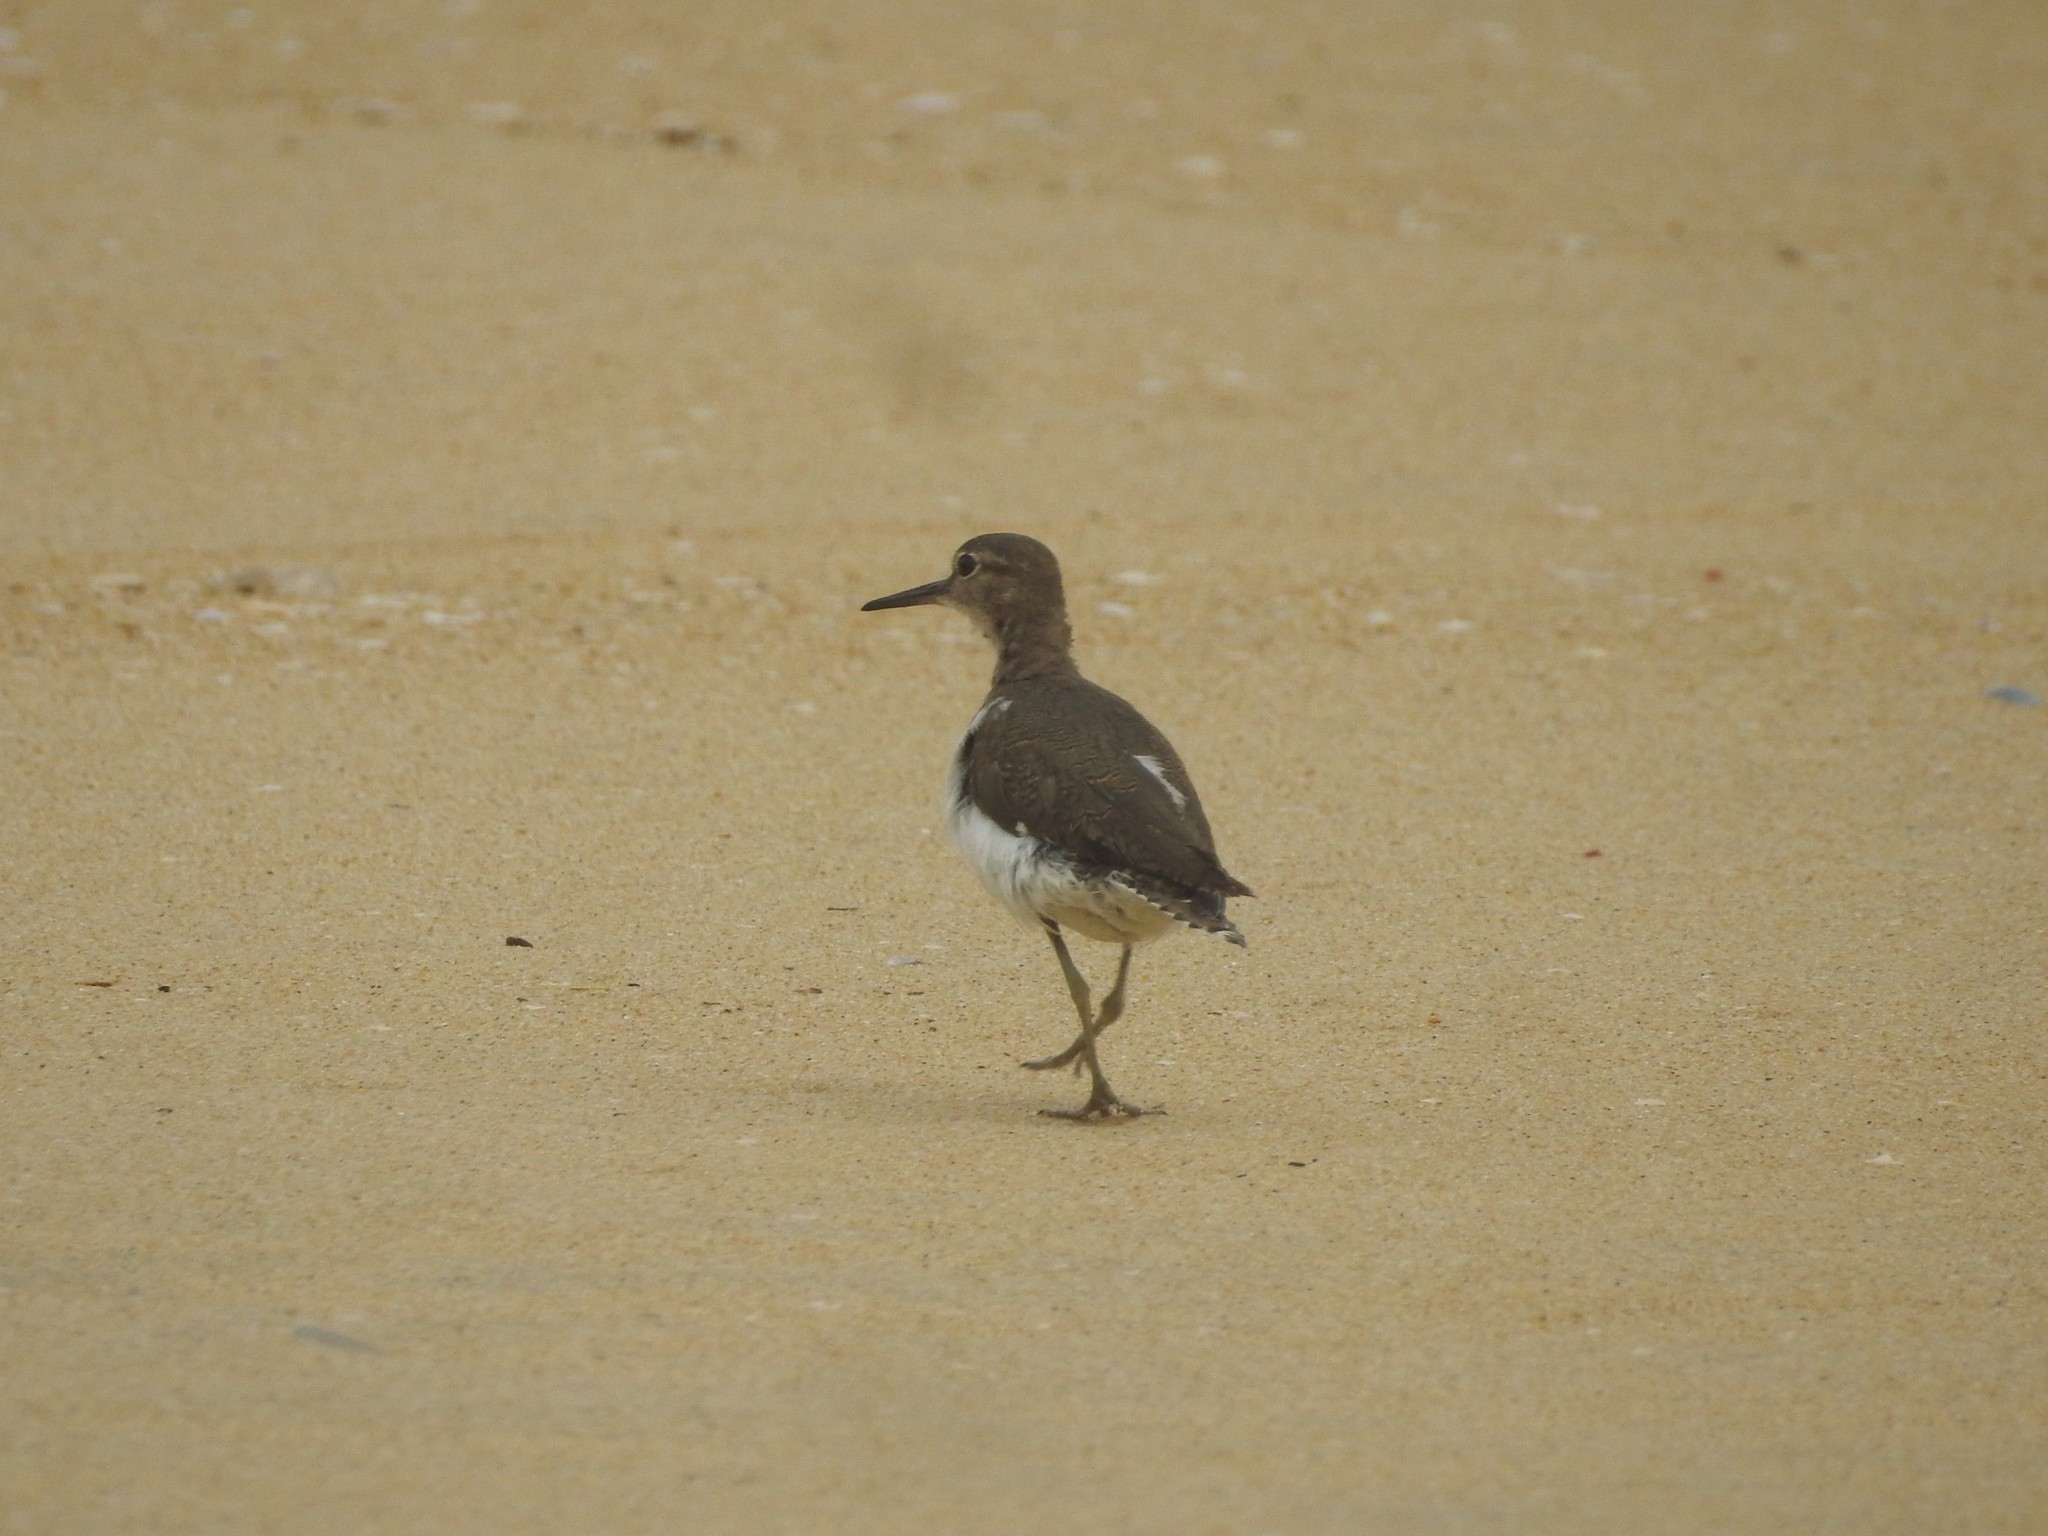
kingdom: Animalia
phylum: Chordata
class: Aves
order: Charadriiformes
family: Scolopacidae
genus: Actitis
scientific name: Actitis hypoleucos
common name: Common sandpiper
